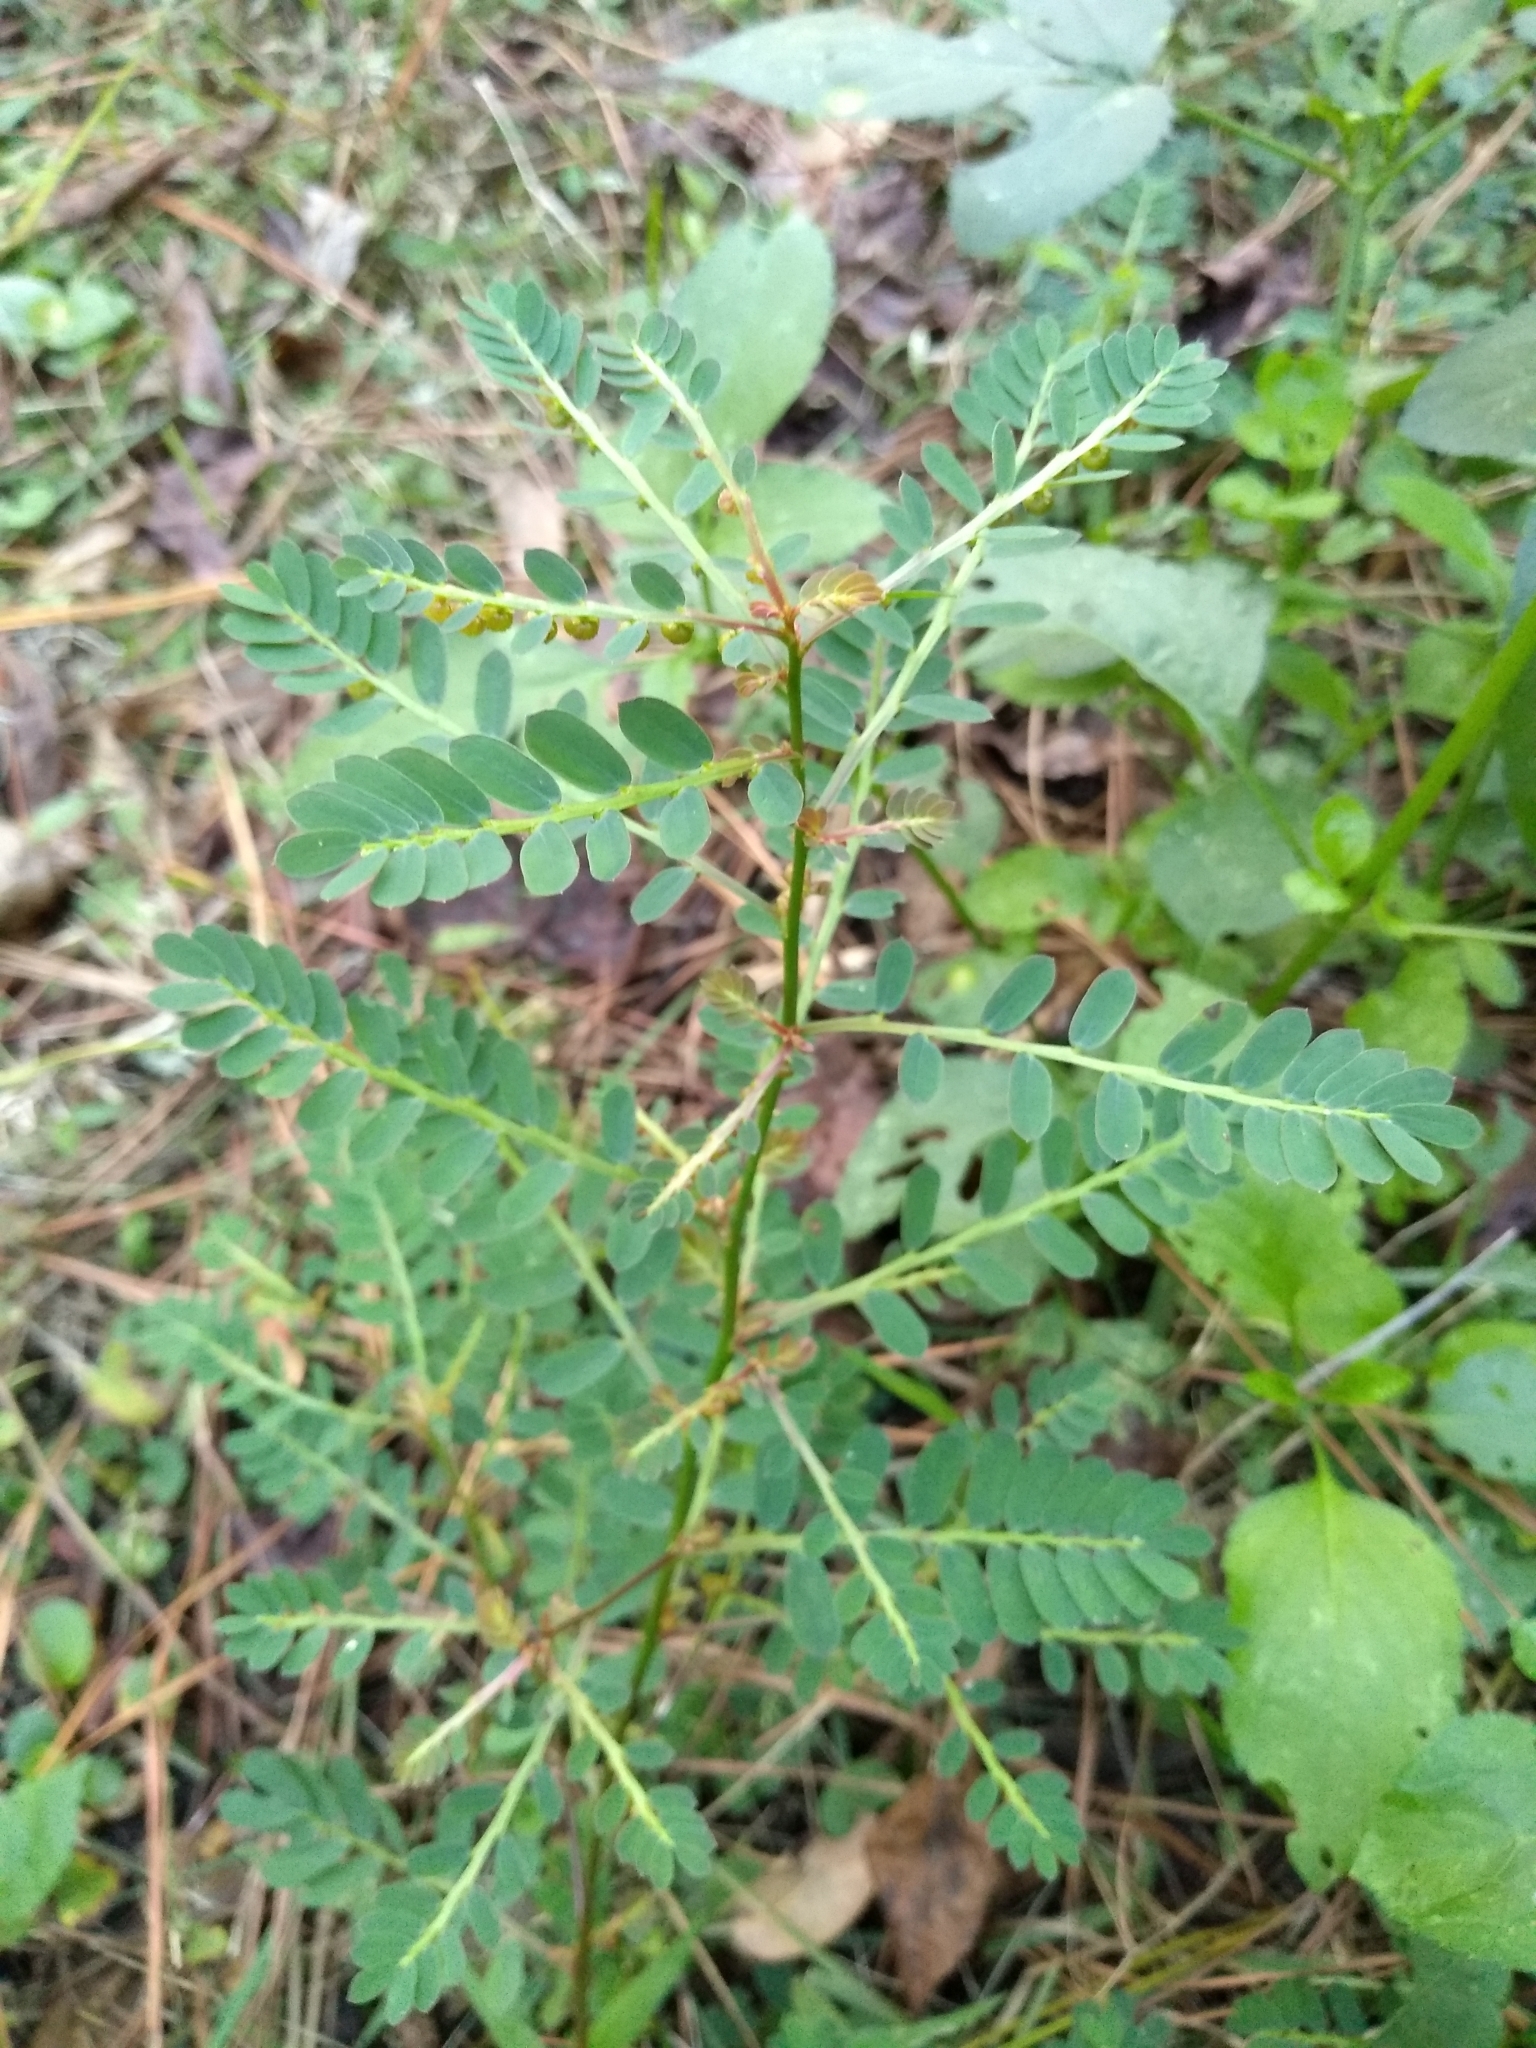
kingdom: Plantae
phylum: Tracheophyta
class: Magnoliopsida
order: Malpighiales
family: Phyllanthaceae
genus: Phyllanthus
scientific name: Phyllanthus urinaria
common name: Chamber bitter
